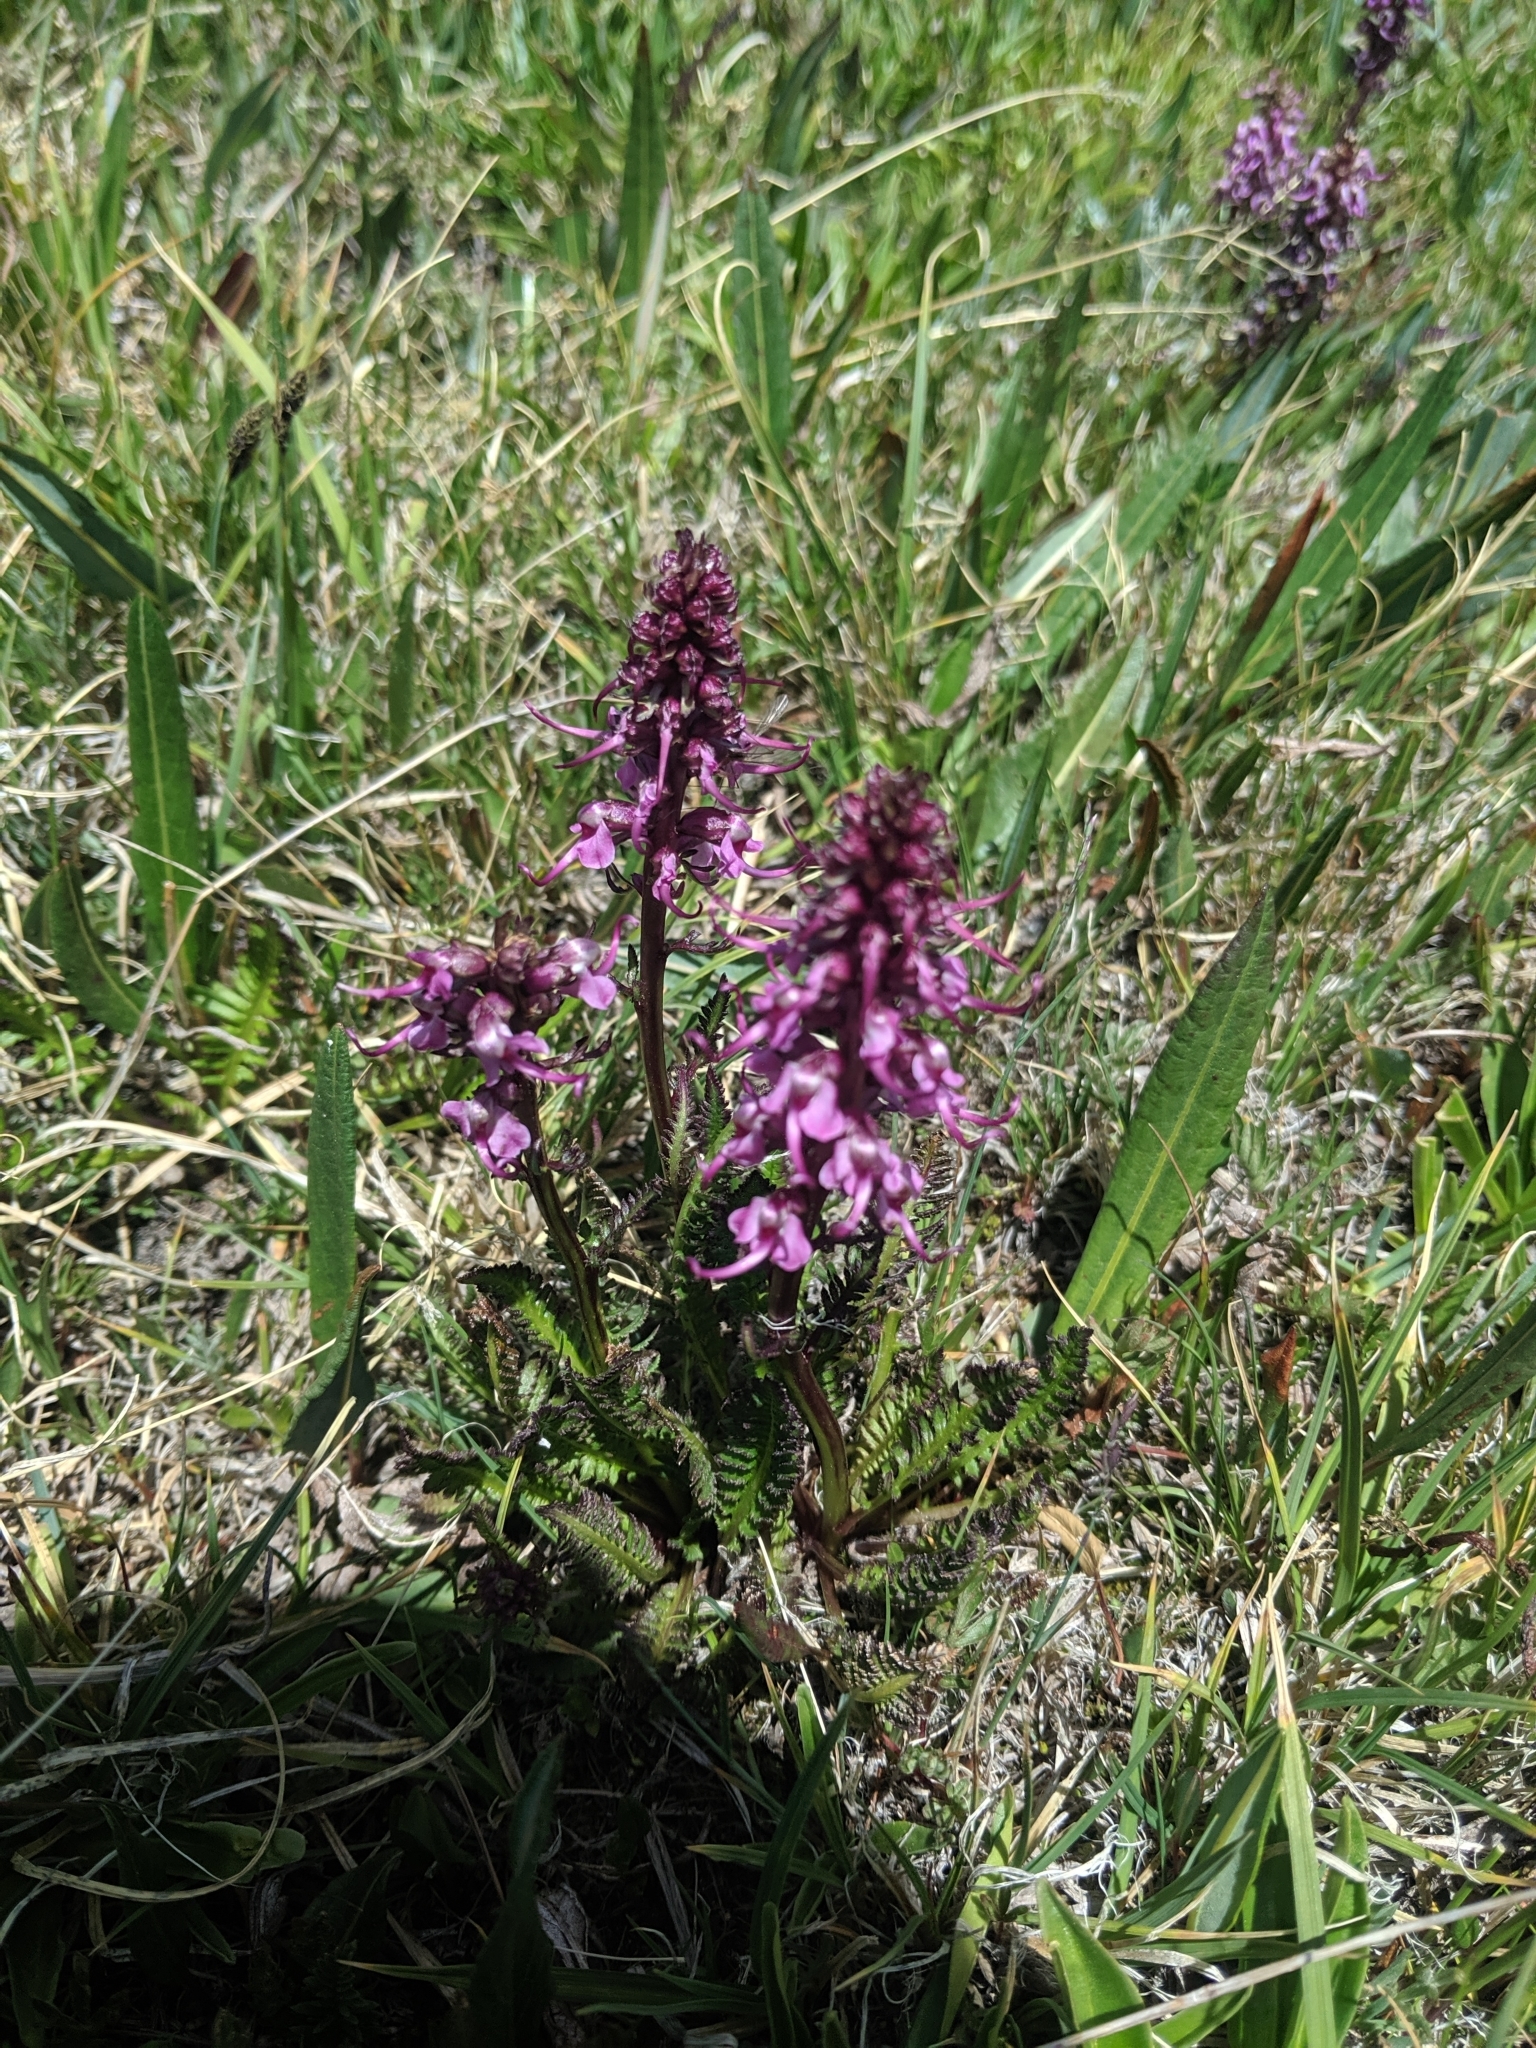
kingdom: Plantae
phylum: Tracheophyta
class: Magnoliopsida
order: Lamiales
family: Orobanchaceae
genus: Pedicularis
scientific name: Pedicularis groenlandica
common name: Elephant's-head
